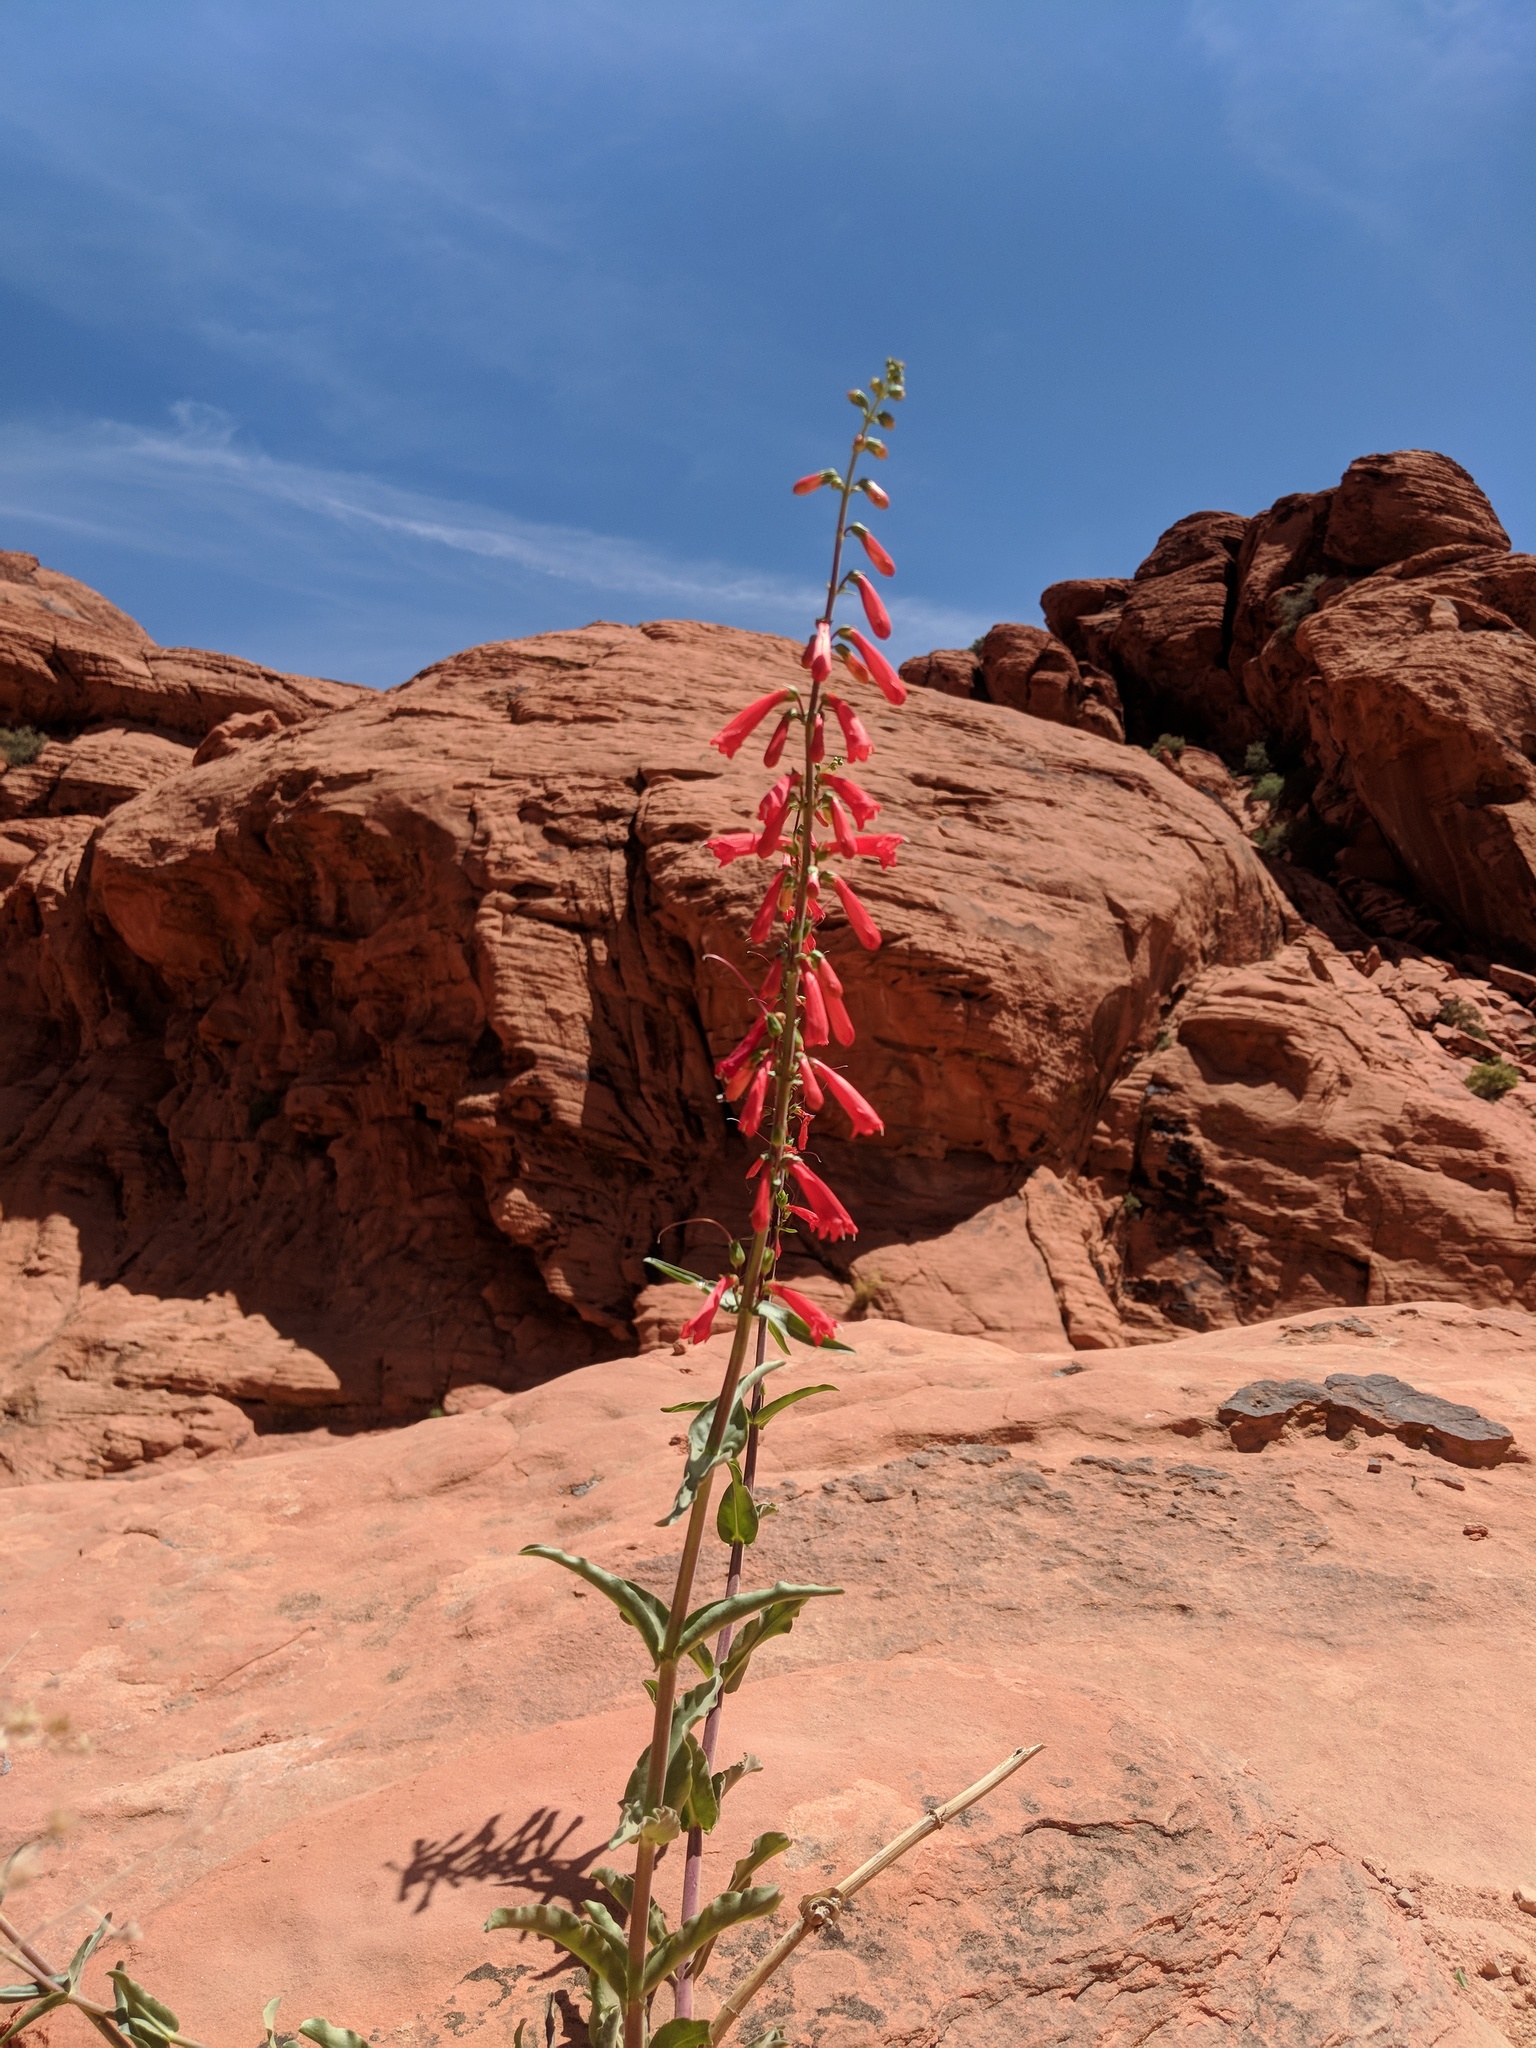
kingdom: Plantae
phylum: Tracheophyta
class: Magnoliopsida
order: Lamiales
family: Plantaginaceae
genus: Penstemon
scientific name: Penstemon eatonii
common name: Eaton's penstemon
